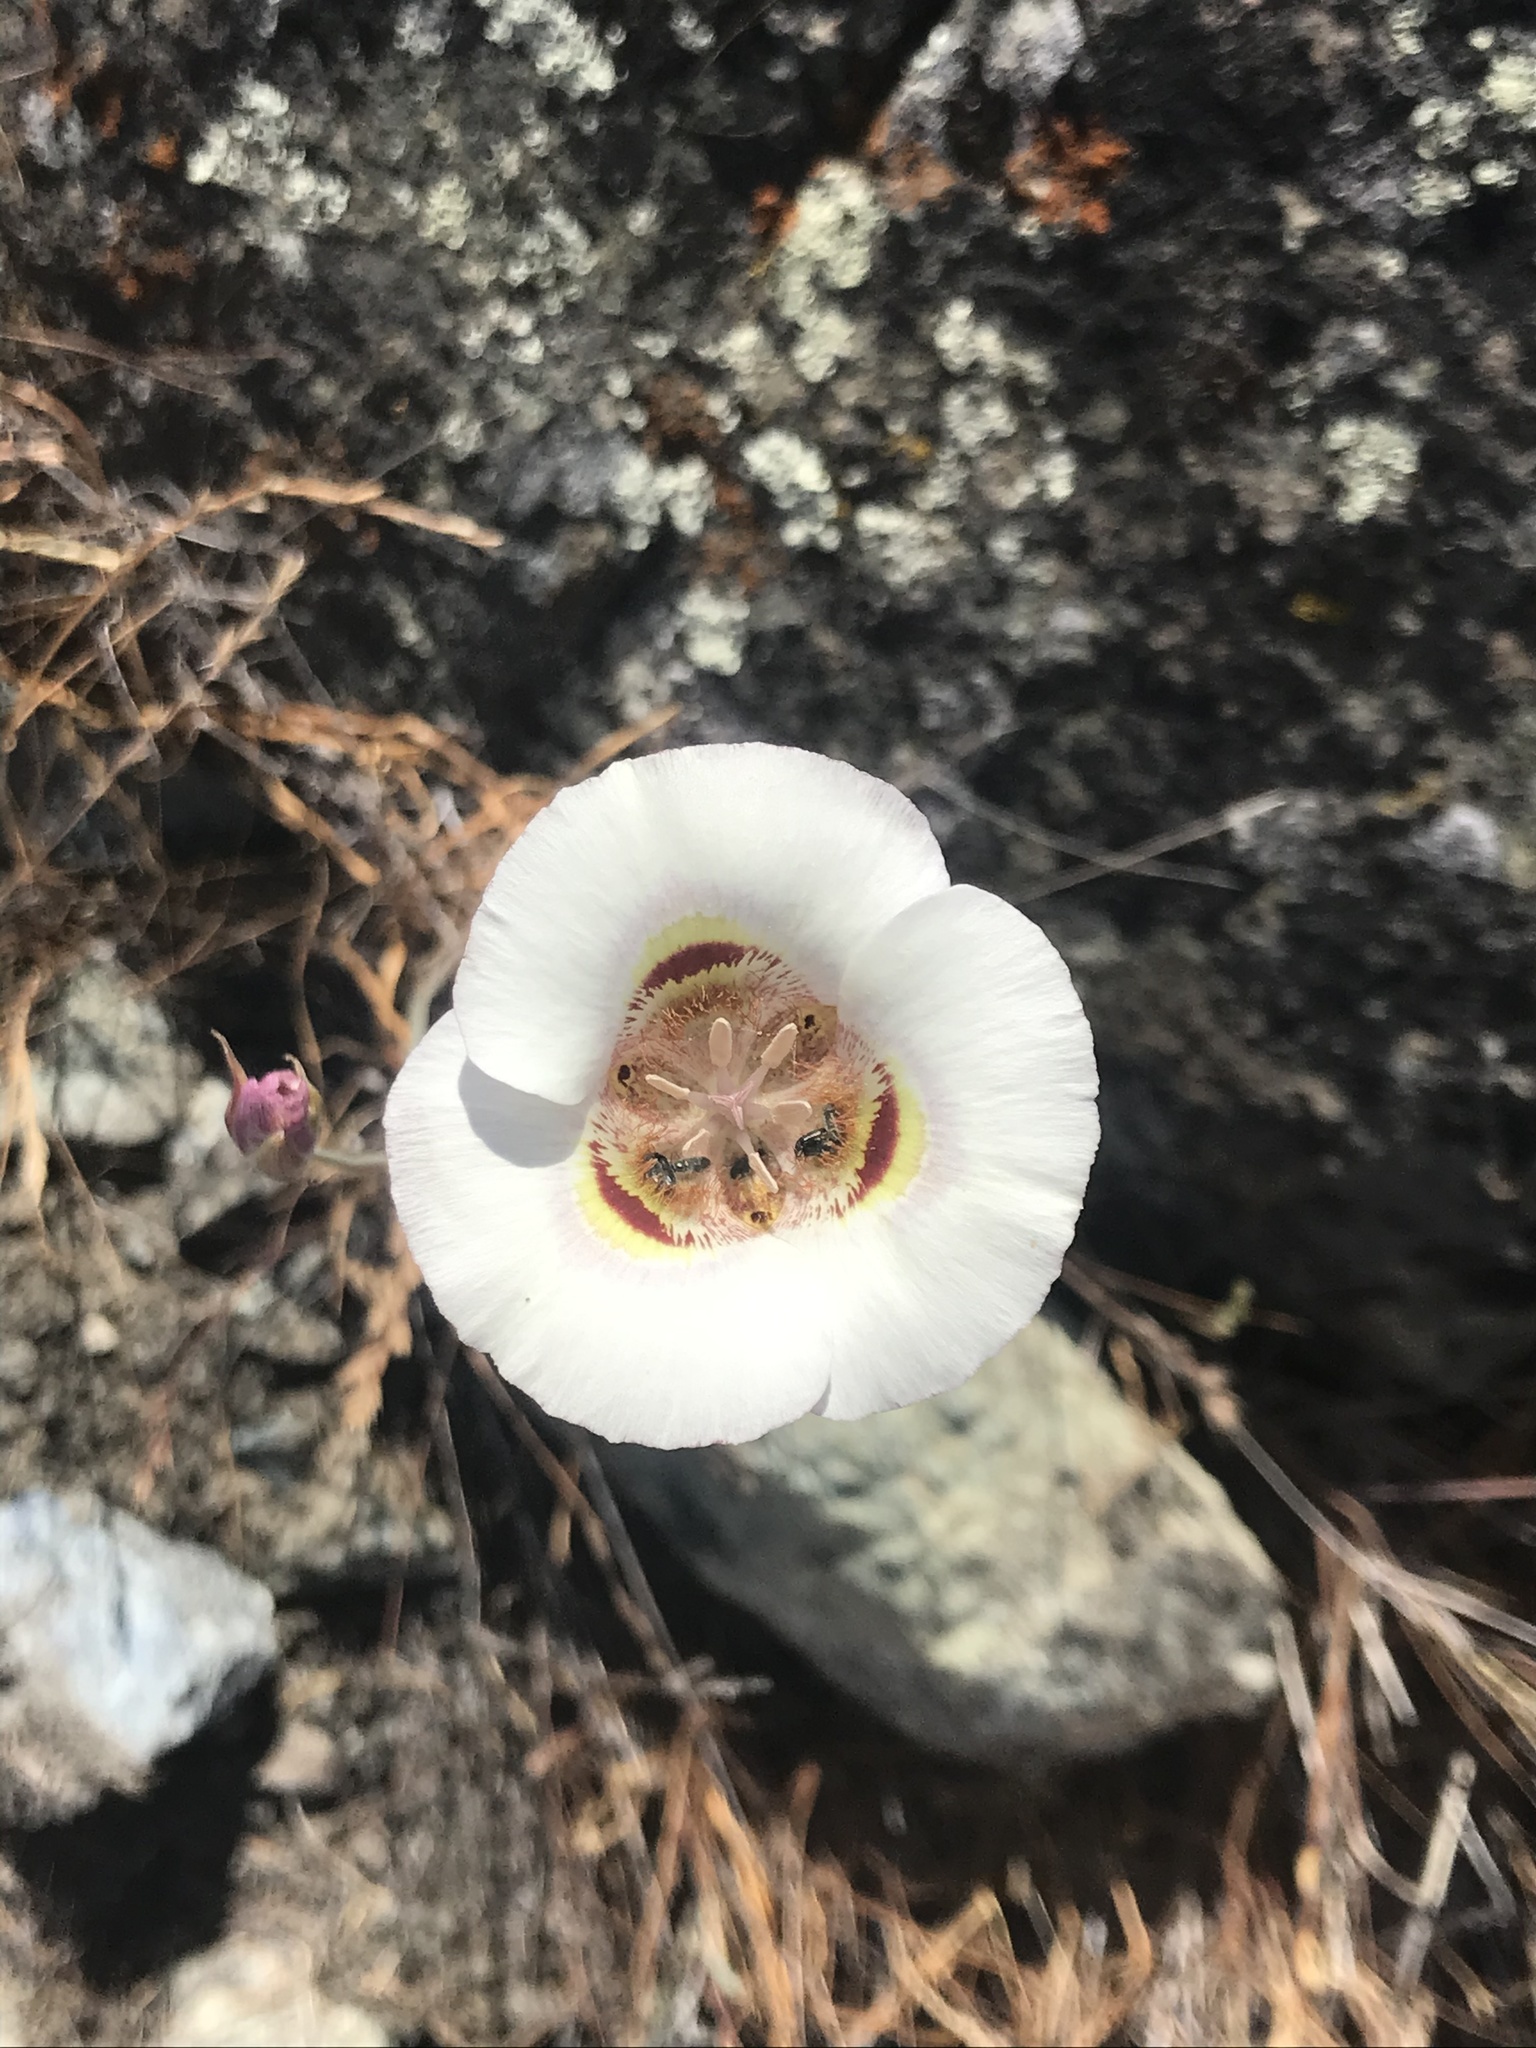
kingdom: Plantae
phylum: Tracheophyta
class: Liliopsida
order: Liliales
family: Liliaceae
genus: Calochortus
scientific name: Calochortus argillosus
